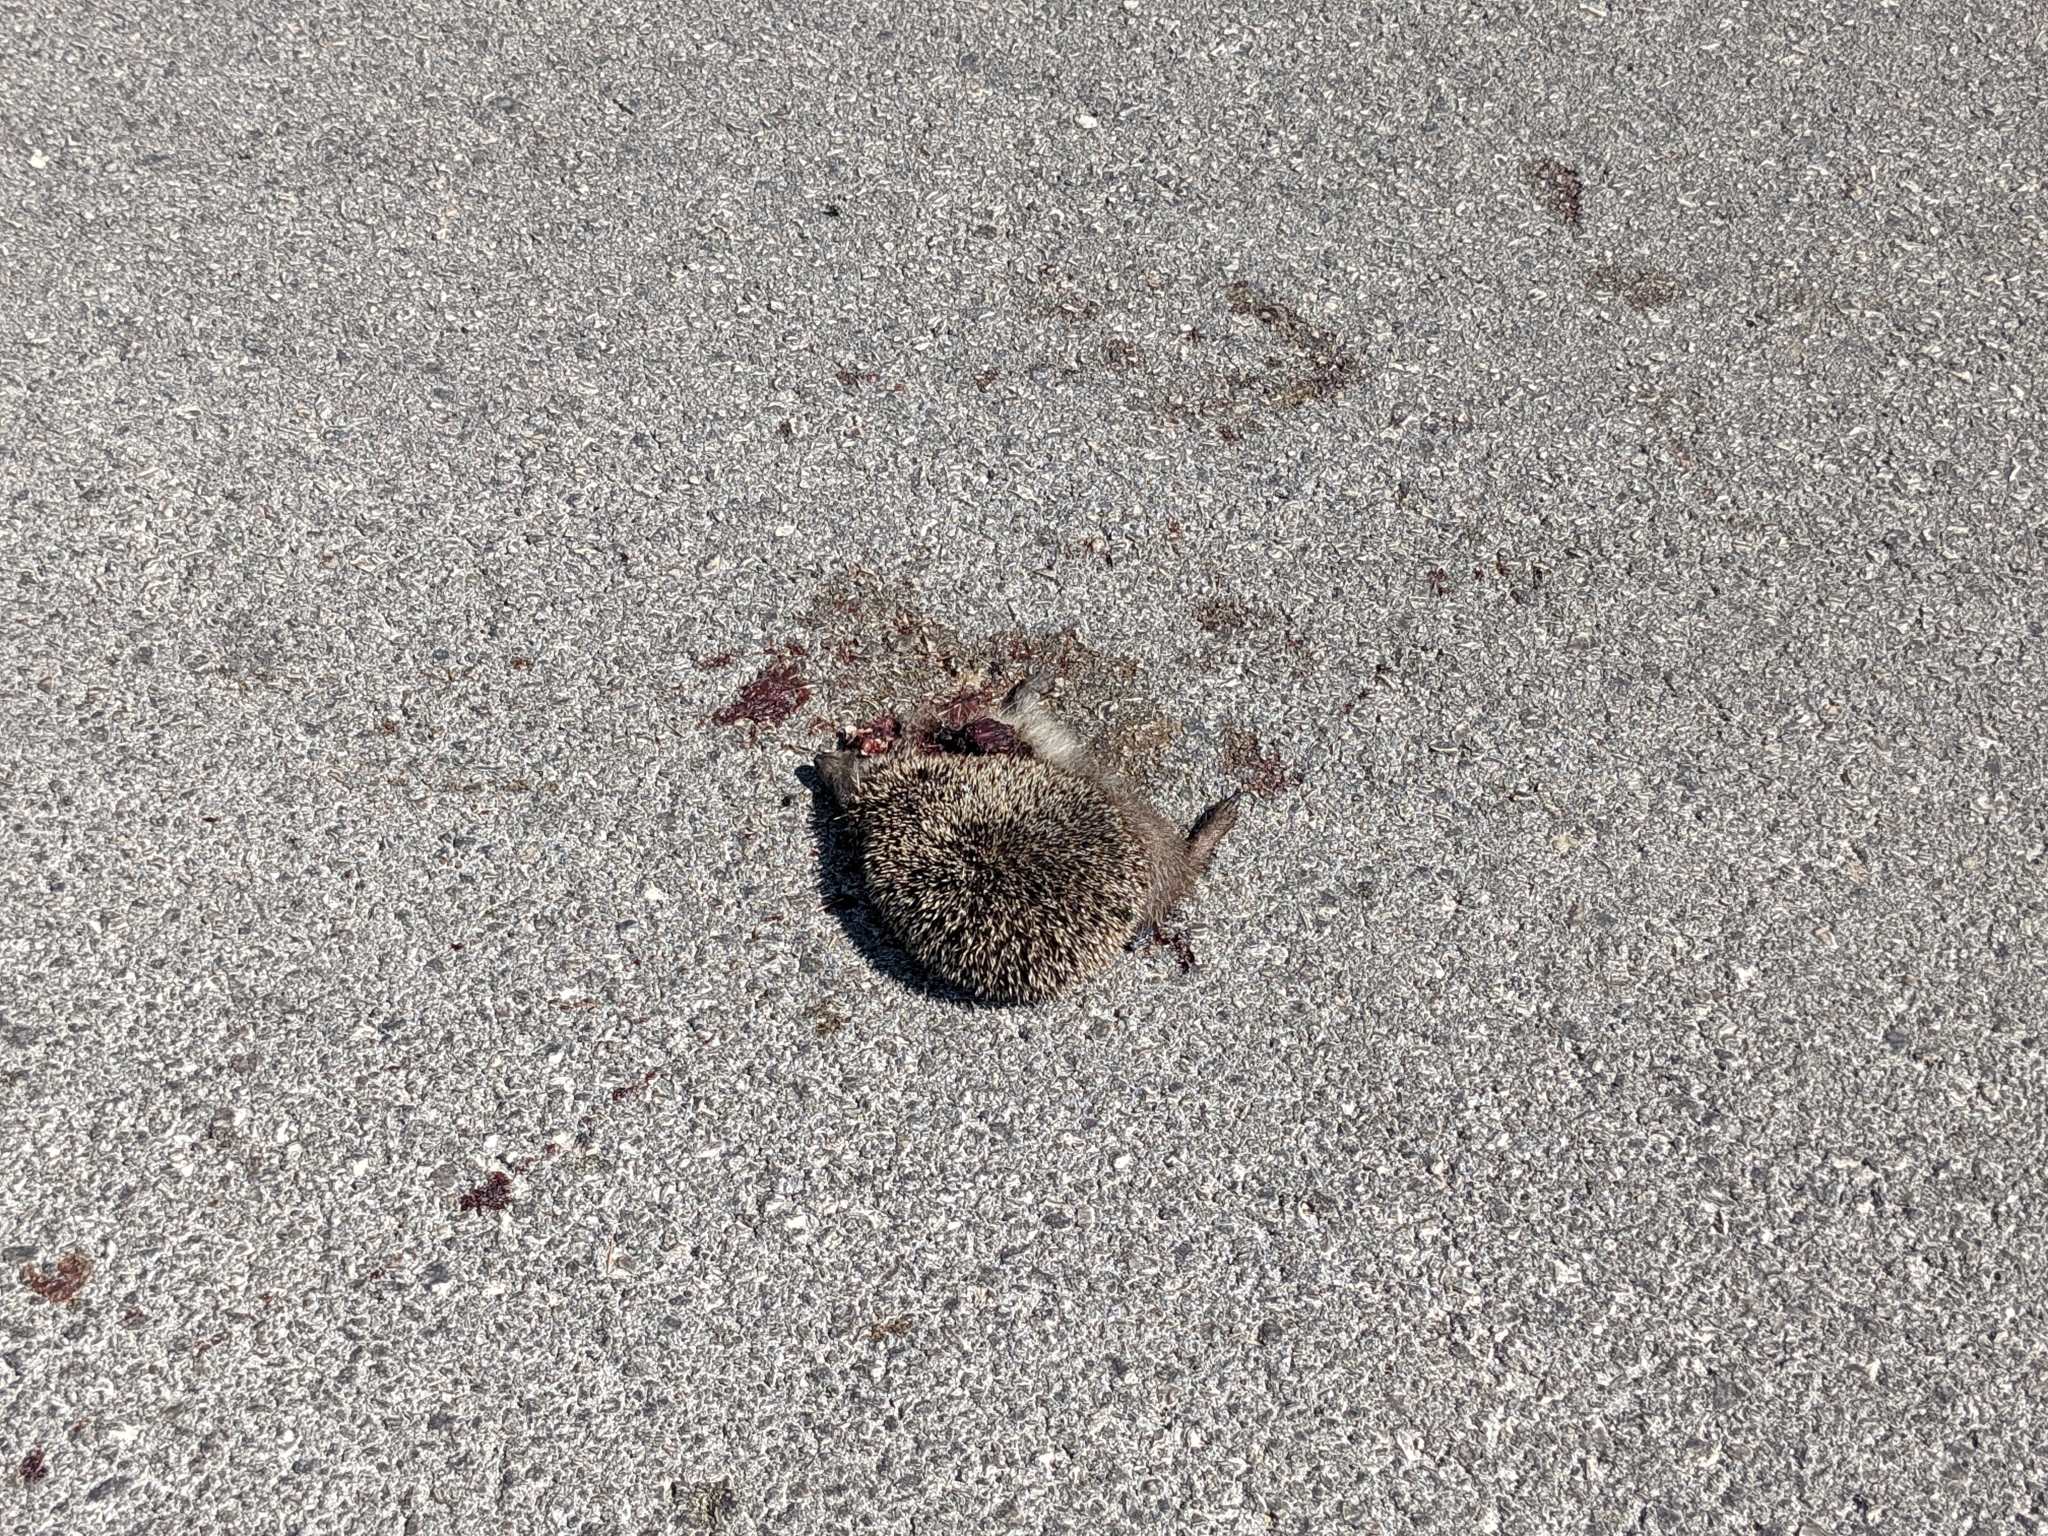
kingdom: Animalia
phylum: Chordata
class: Mammalia
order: Erinaceomorpha
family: Erinaceidae
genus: Erinaceus
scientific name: Erinaceus roumanicus
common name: Northern white-breasted hedgehog
